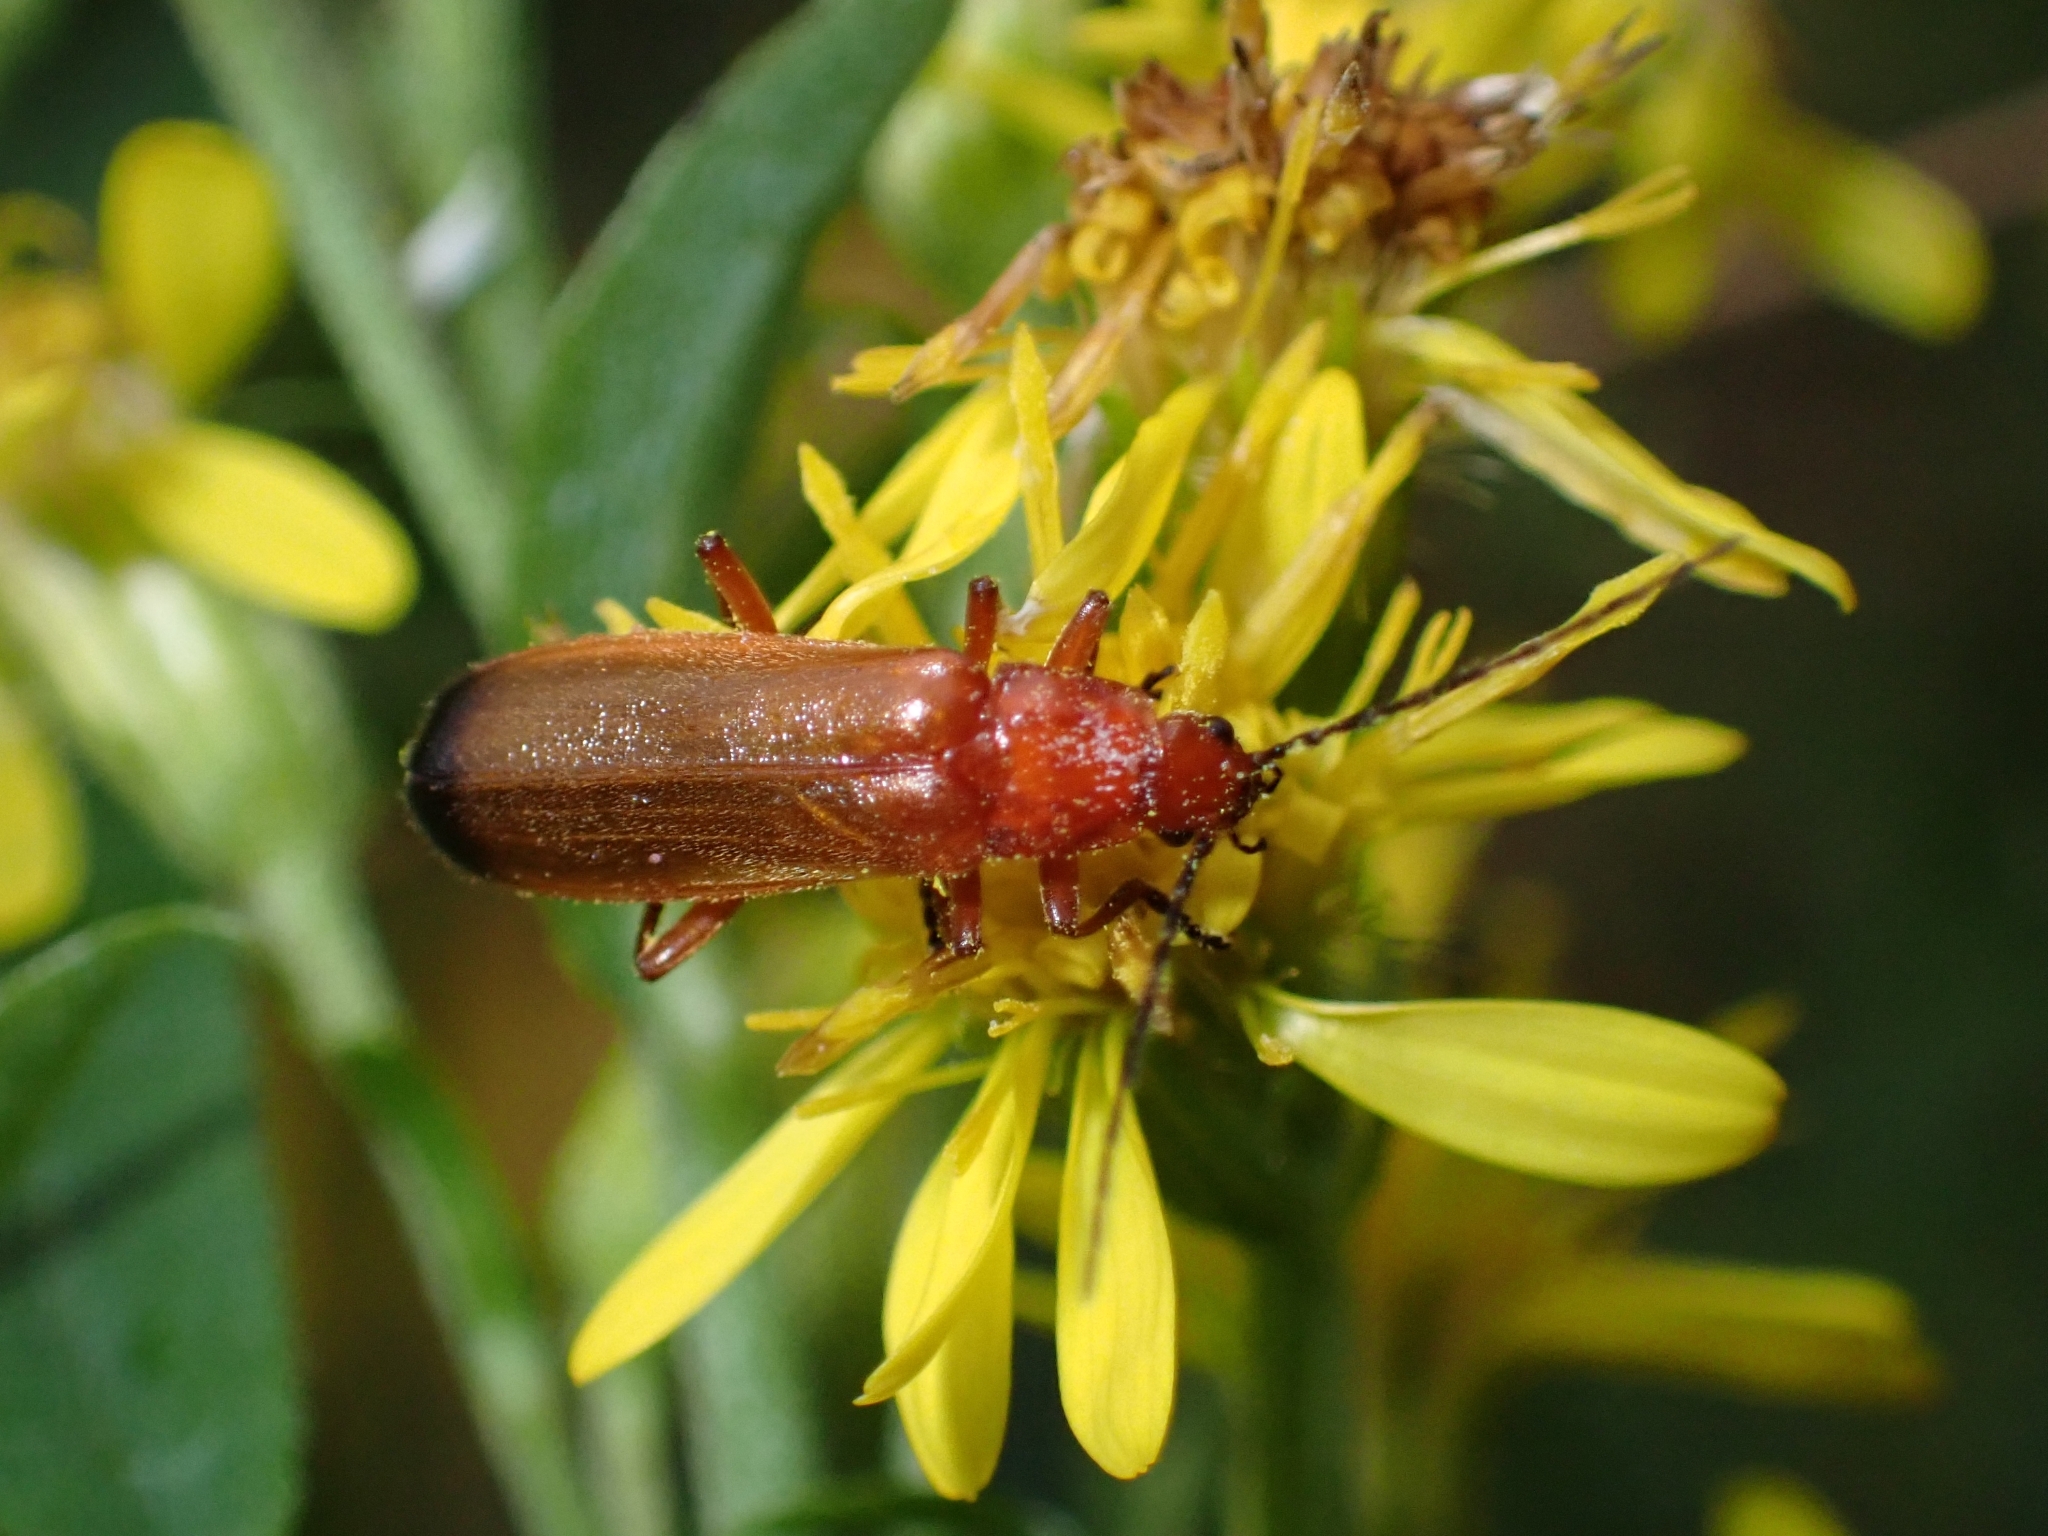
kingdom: Animalia
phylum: Arthropoda
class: Insecta
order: Coleoptera
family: Cantharidae
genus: Rhagonycha
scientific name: Rhagonycha fulva
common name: Common red soldier beetle
